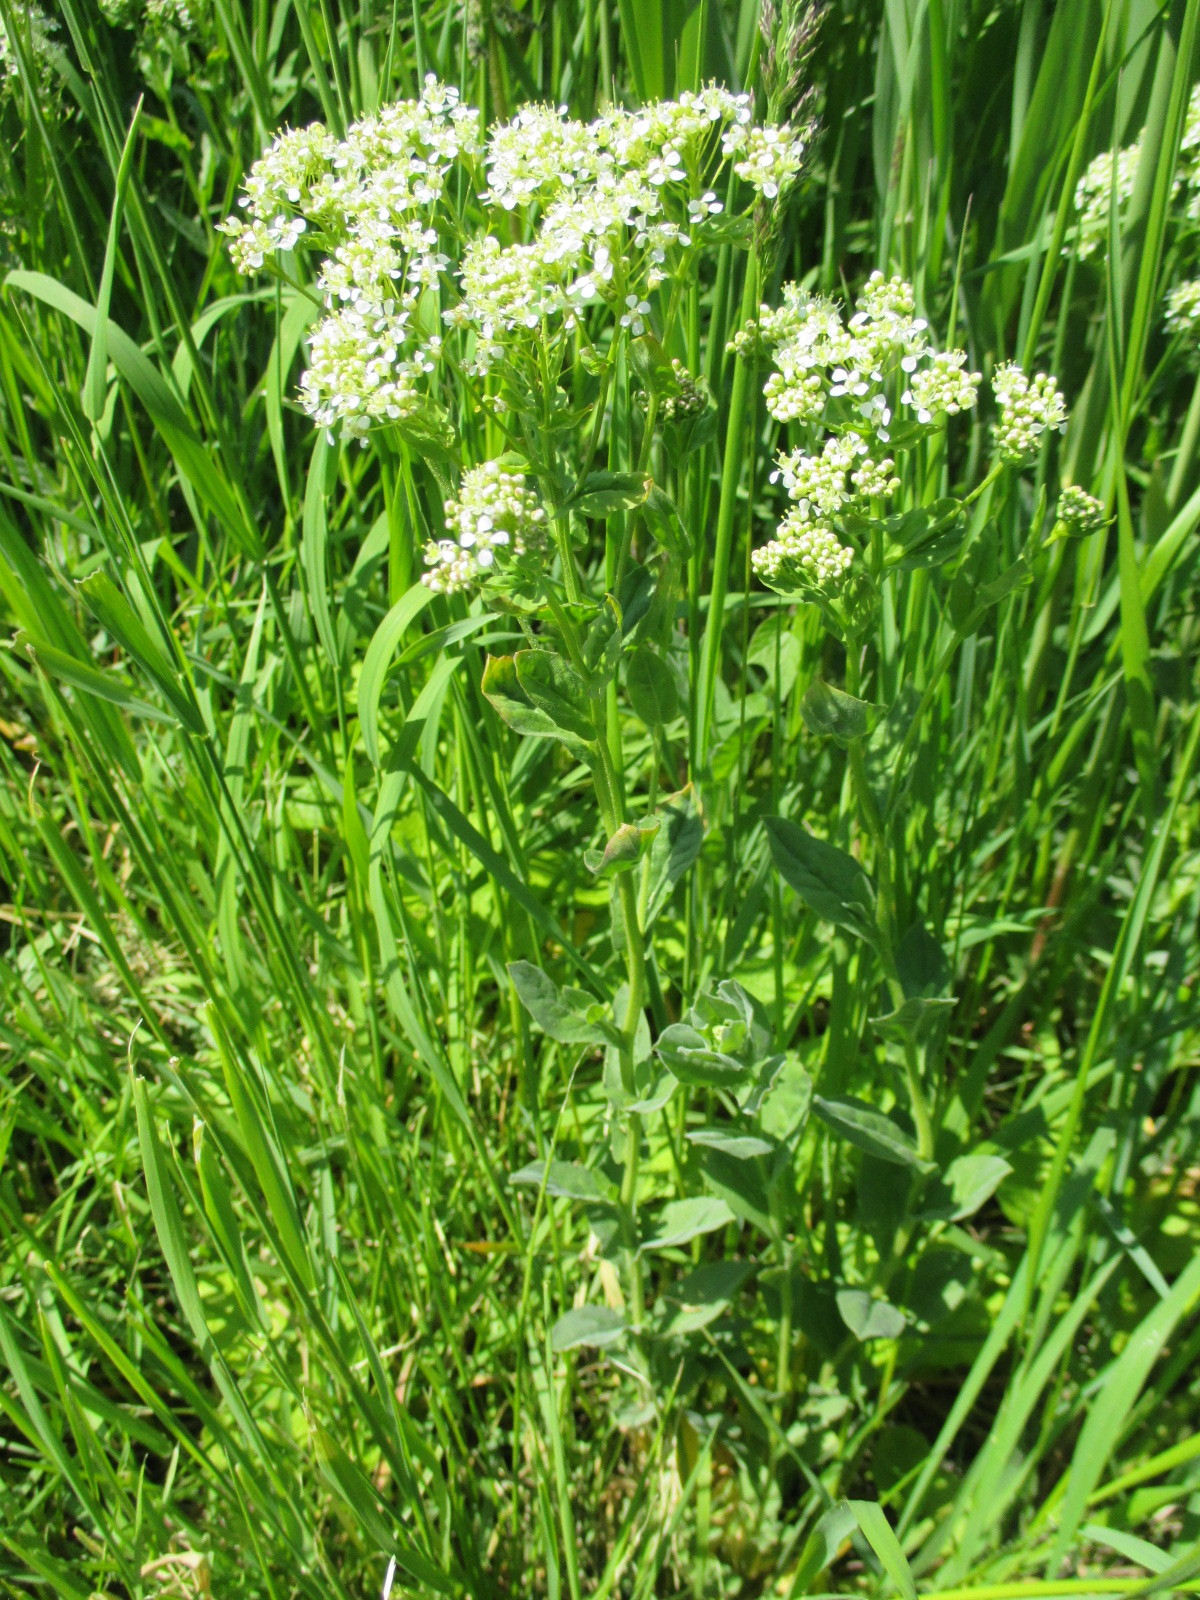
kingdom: Plantae
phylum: Tracheophyta
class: Magnoliopsida
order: Brassicales
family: Brassicaceae
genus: Lepidium
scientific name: Lepidium draba
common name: Hoary cress
